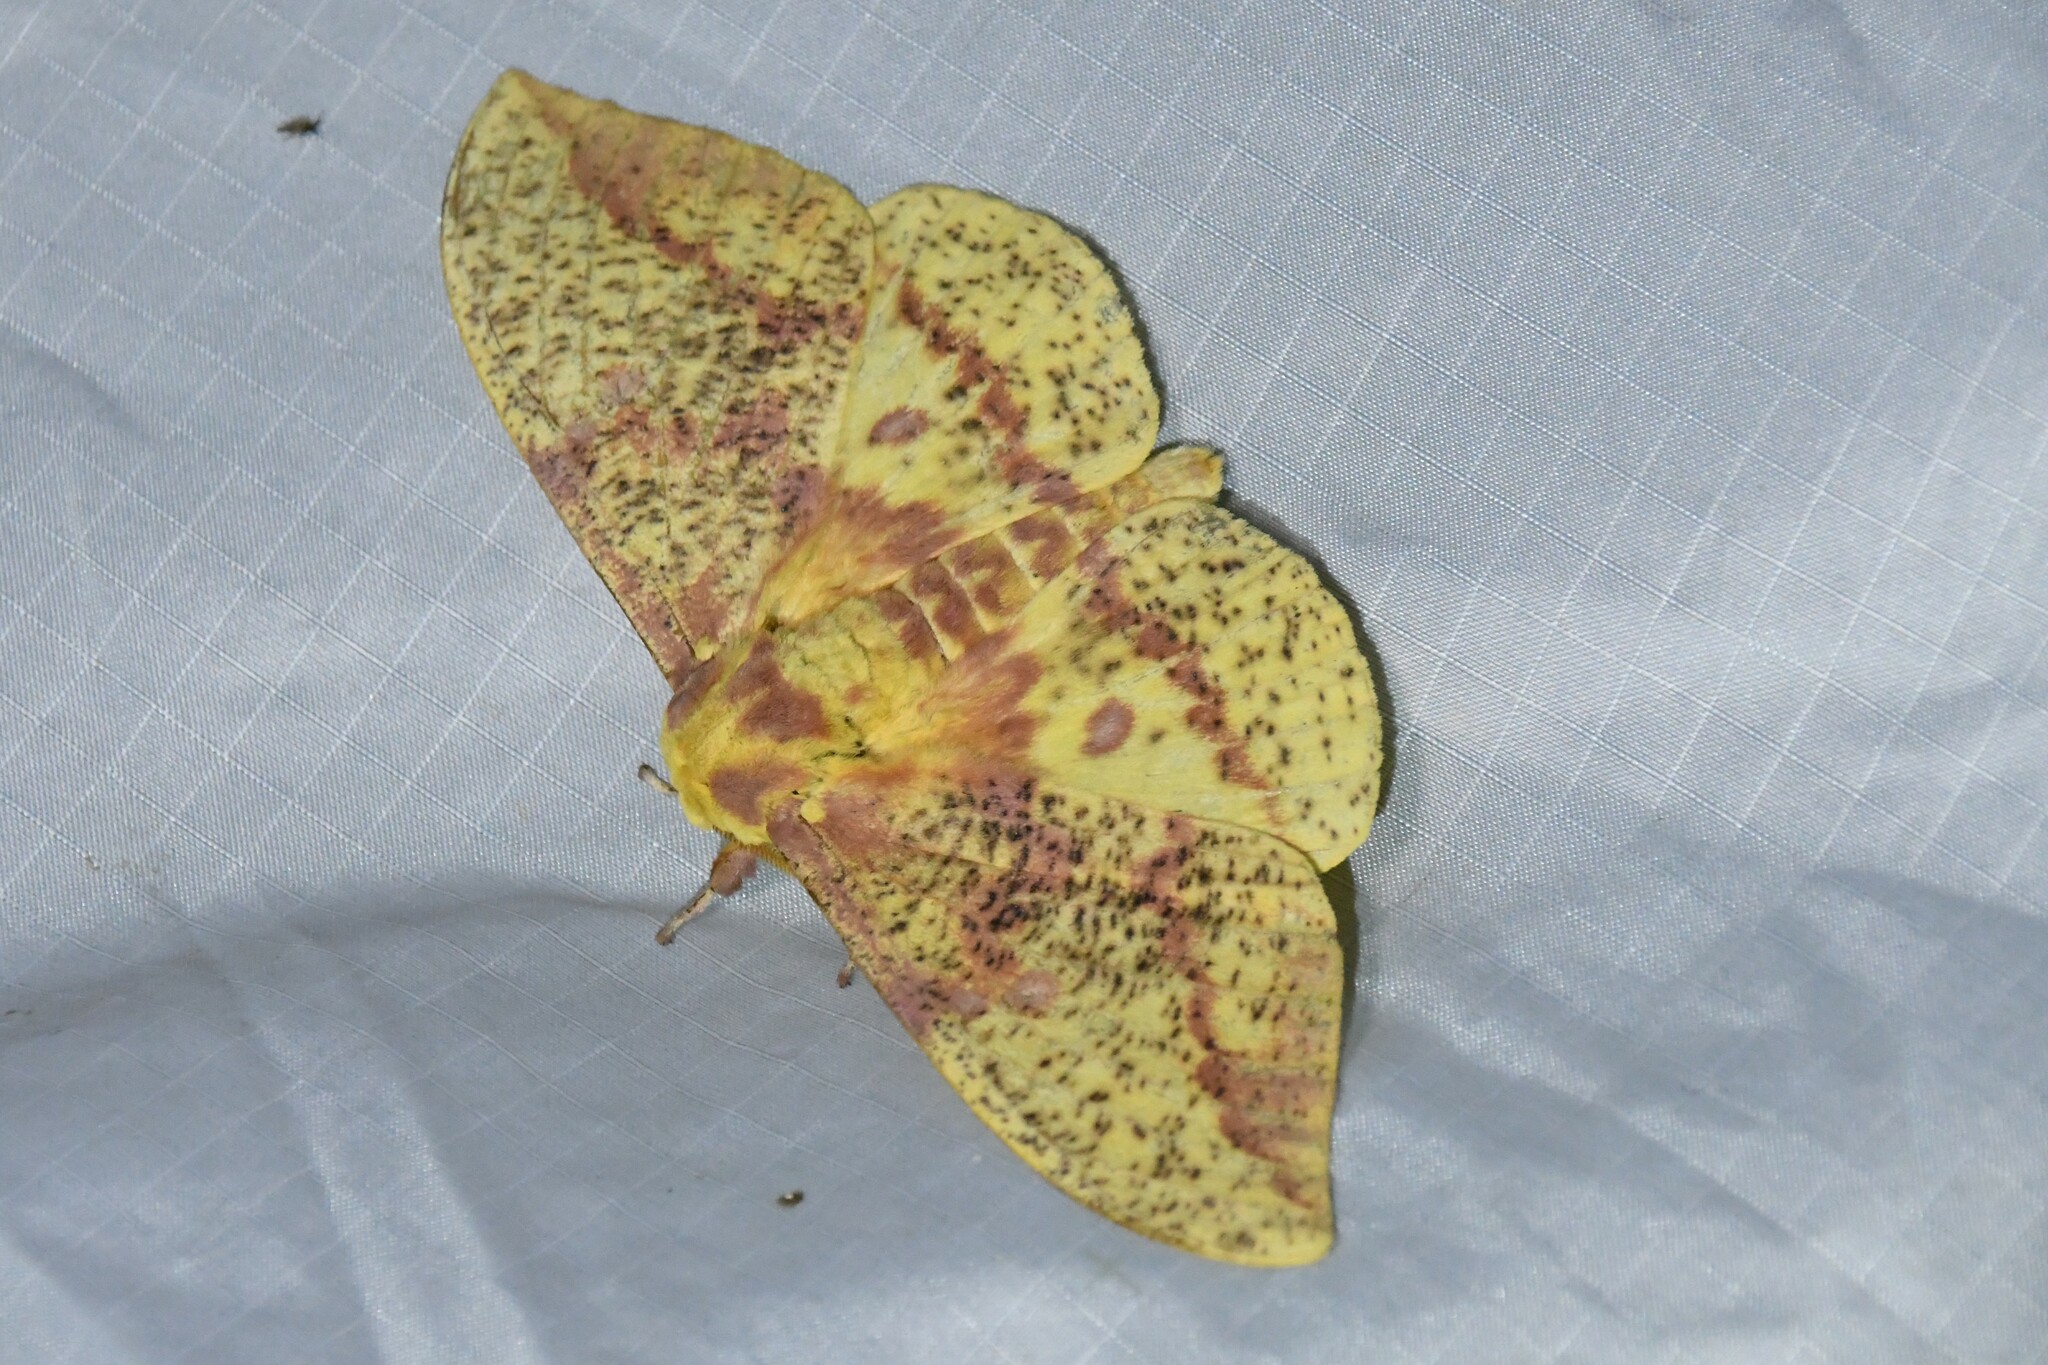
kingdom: Animalia
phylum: Arthropoda
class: Insecta
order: Lepidoptera
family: Saturniidae
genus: Eacles
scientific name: Eacles
